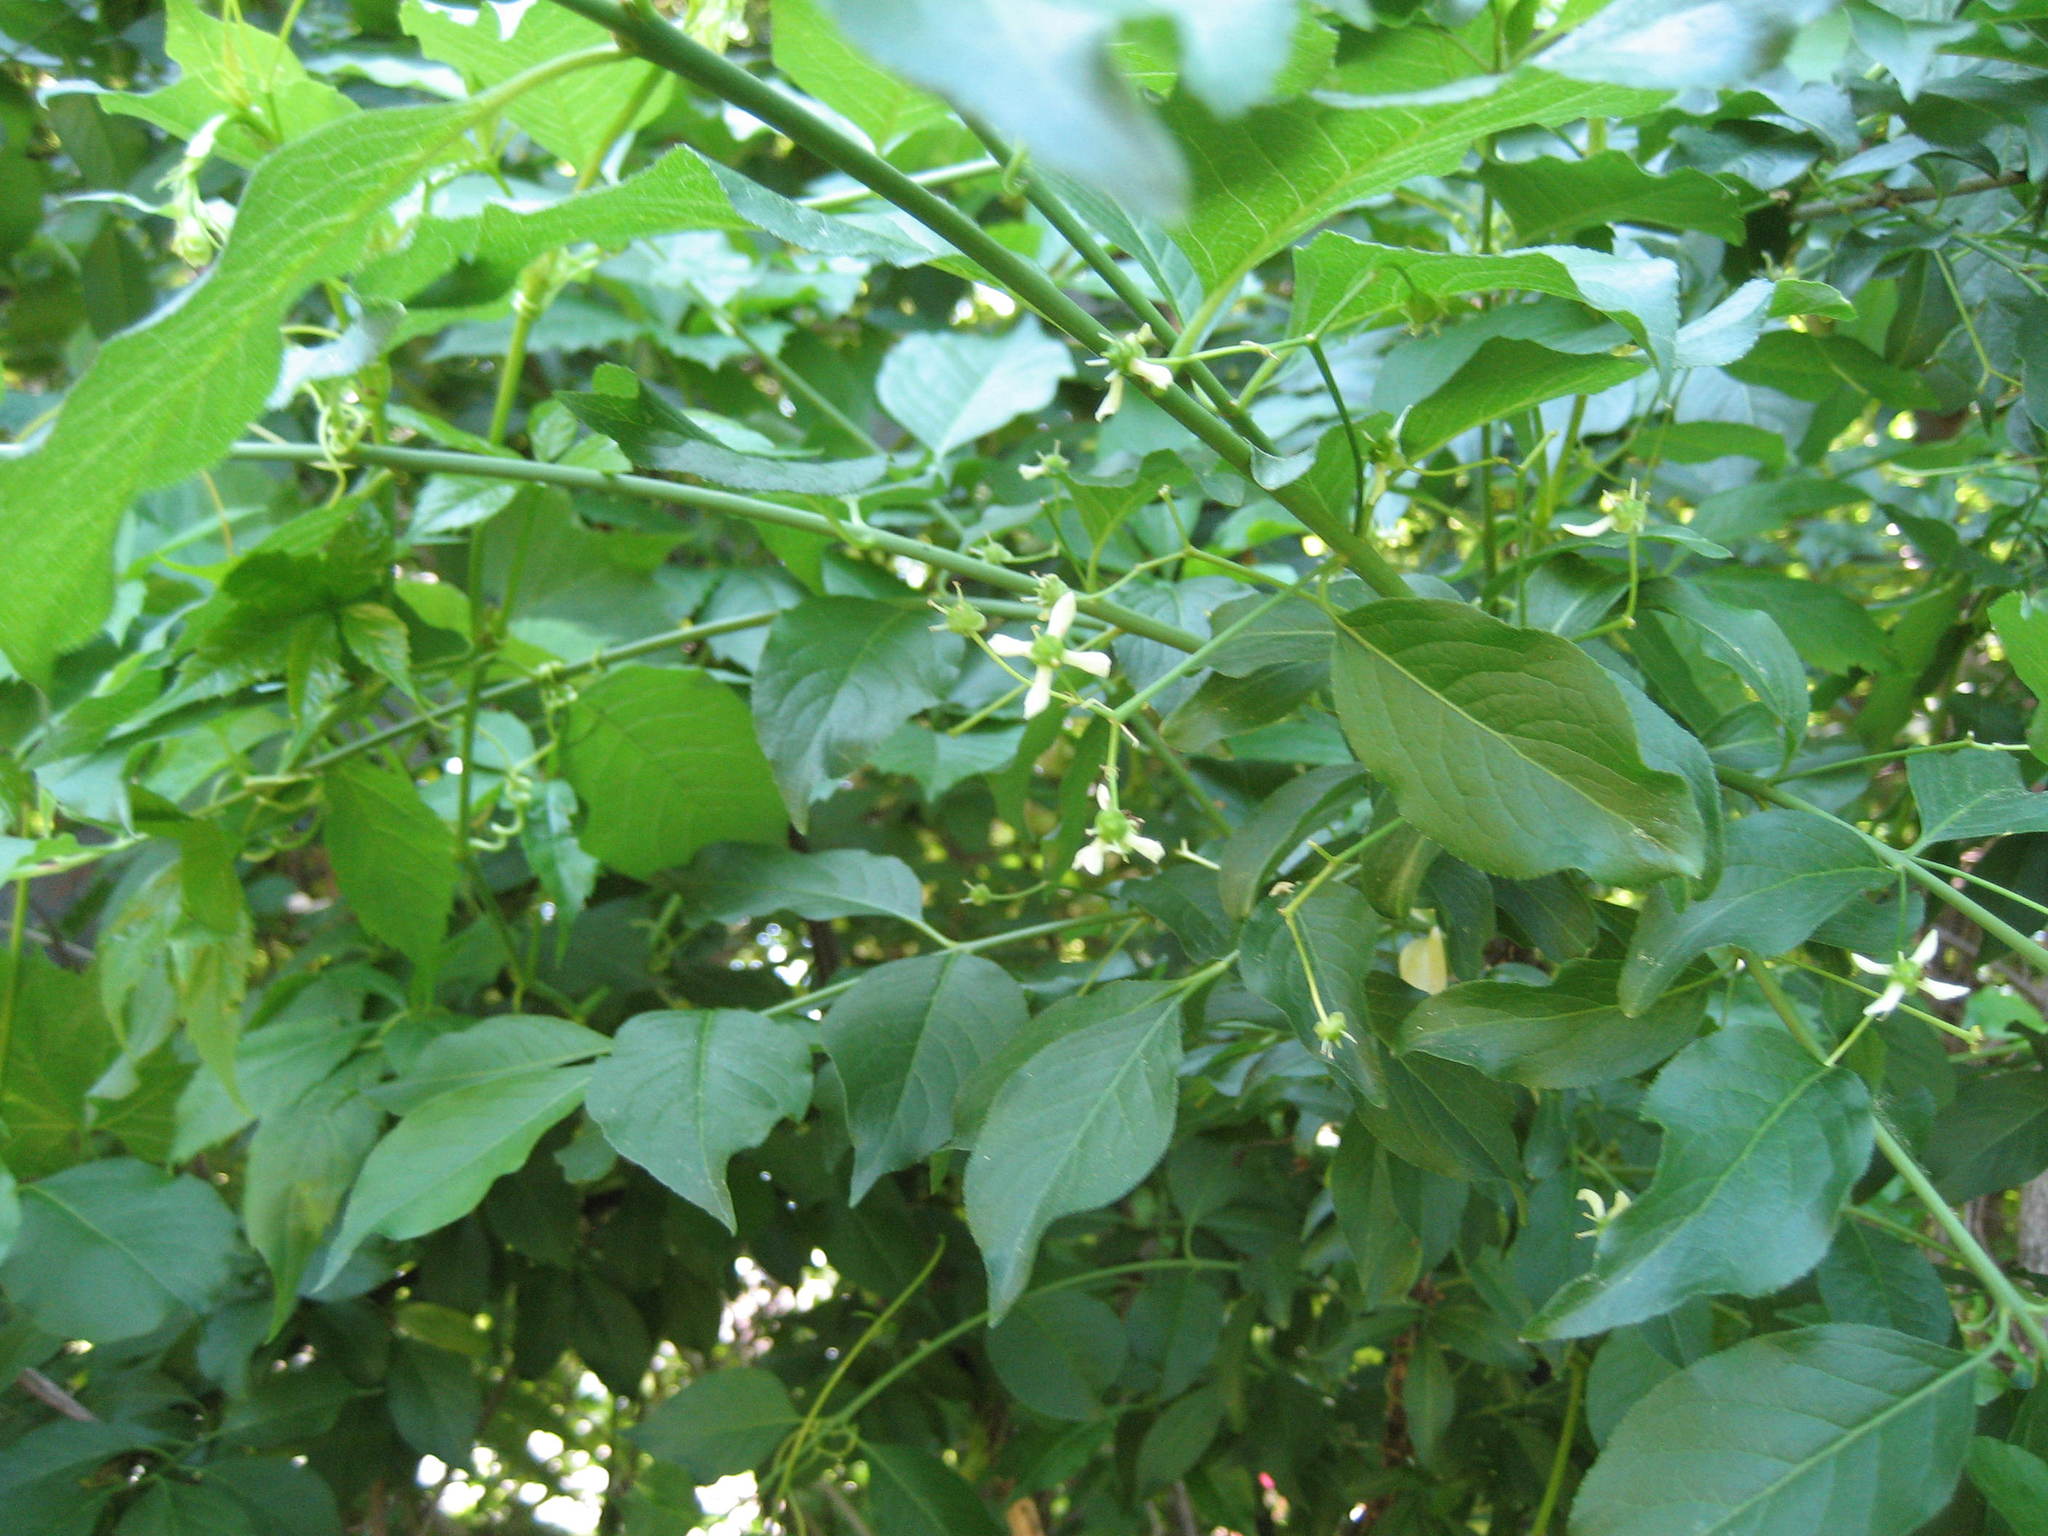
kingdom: Plantae
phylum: Tracheophyta
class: Magnoliopsida
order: Celastrales
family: Celastraceae
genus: Euonymus
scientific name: Euonymus europaeus
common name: Spindle
